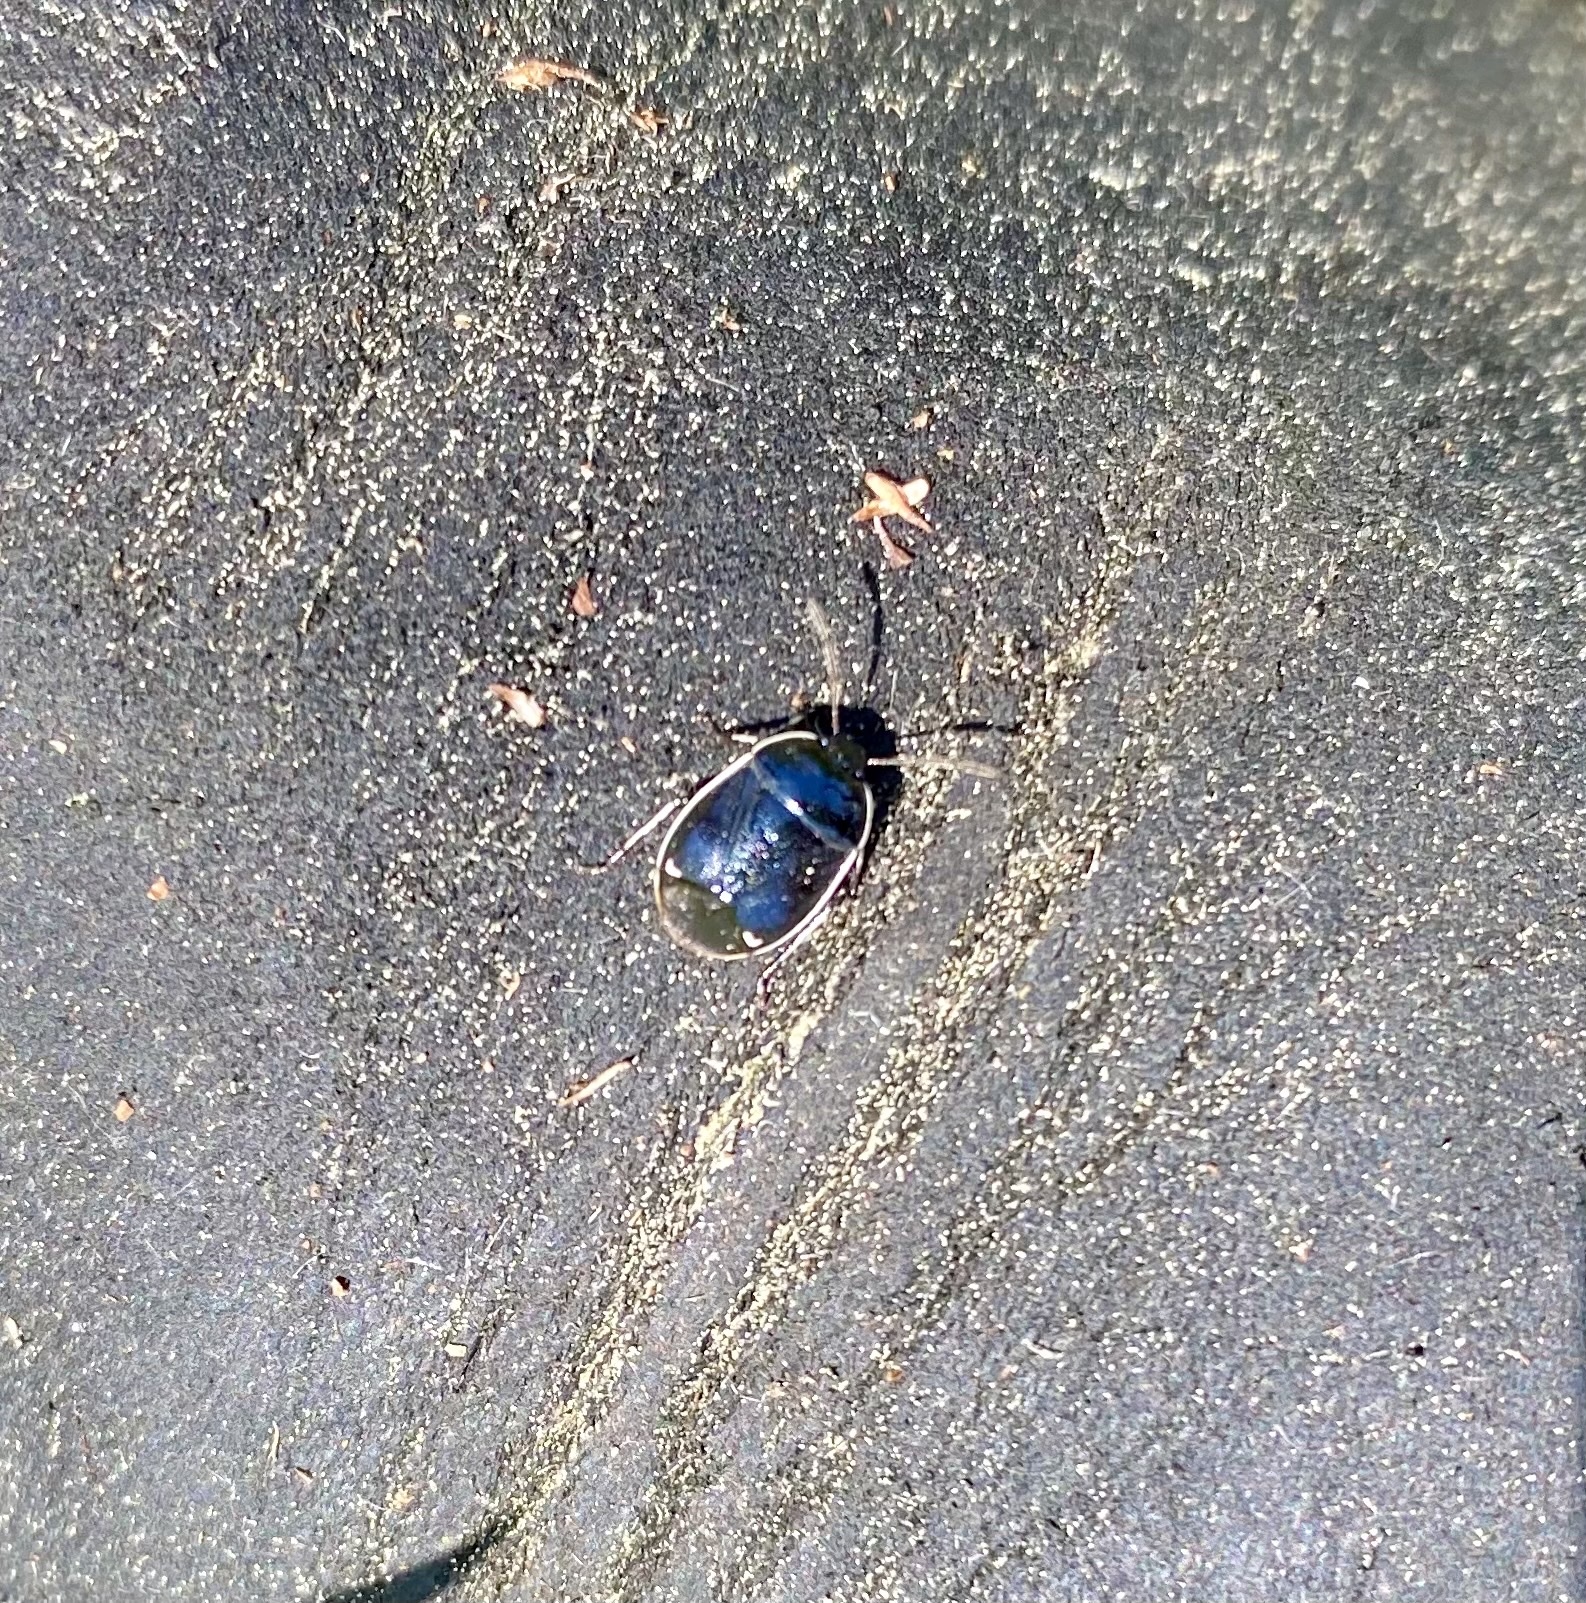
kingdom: Animalia
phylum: Arthropoda
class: Insecta
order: Hemiptera
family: Cydnidae
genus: Sehirus
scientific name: Sehirus cinctus
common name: White-margined burrower bug
